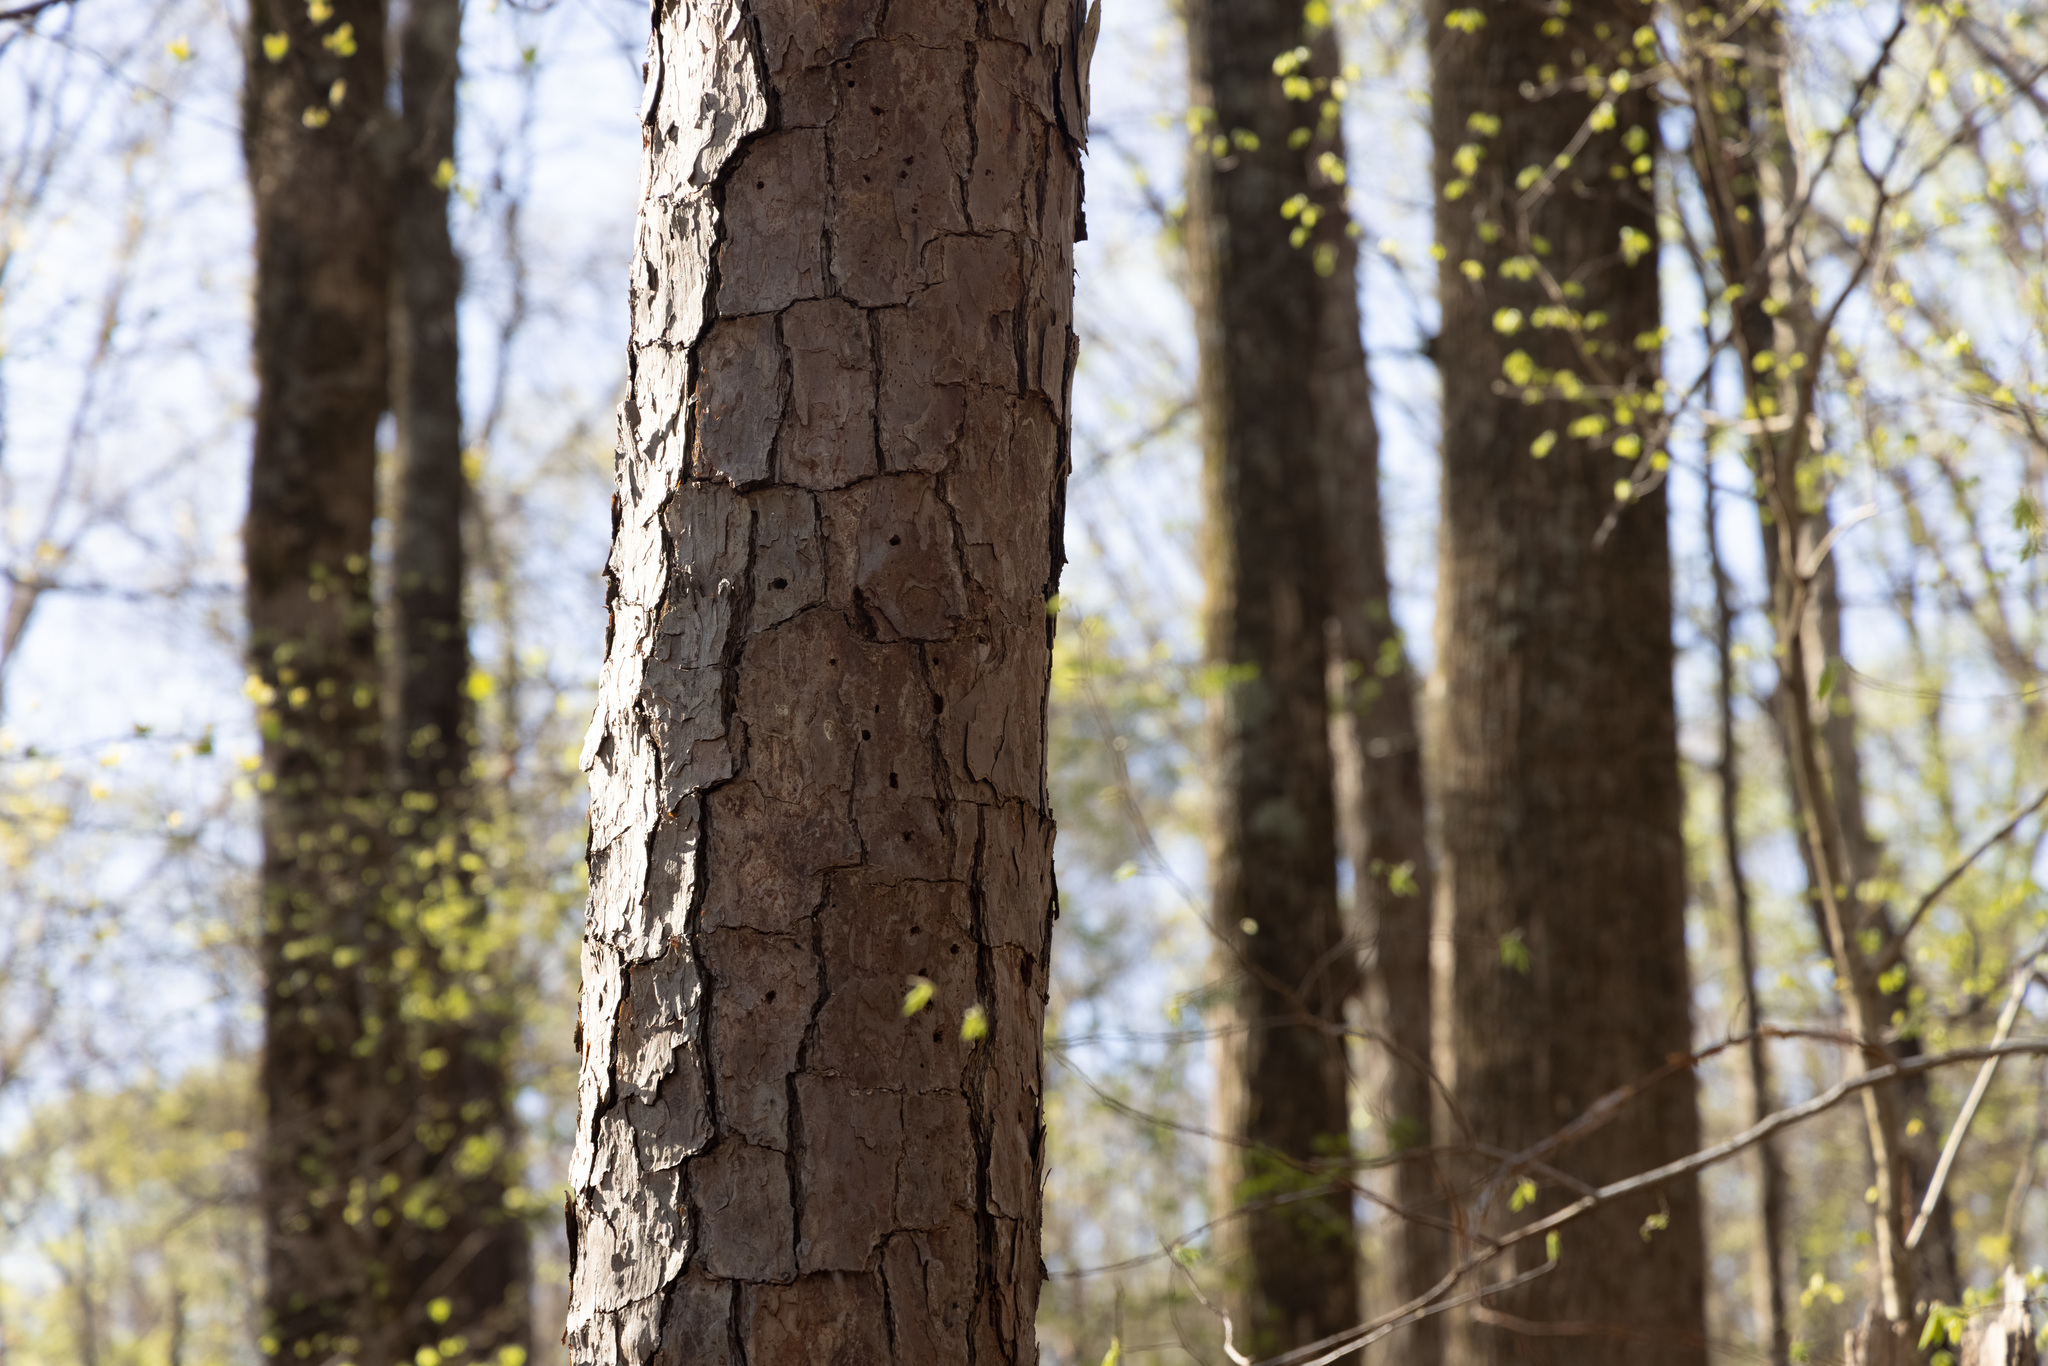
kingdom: Plantae
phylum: Tracheophyta
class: Pinopsida
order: Pinales
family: Pinaceae
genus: Pinus
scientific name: Pinus echinata
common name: Shortleaf pine
